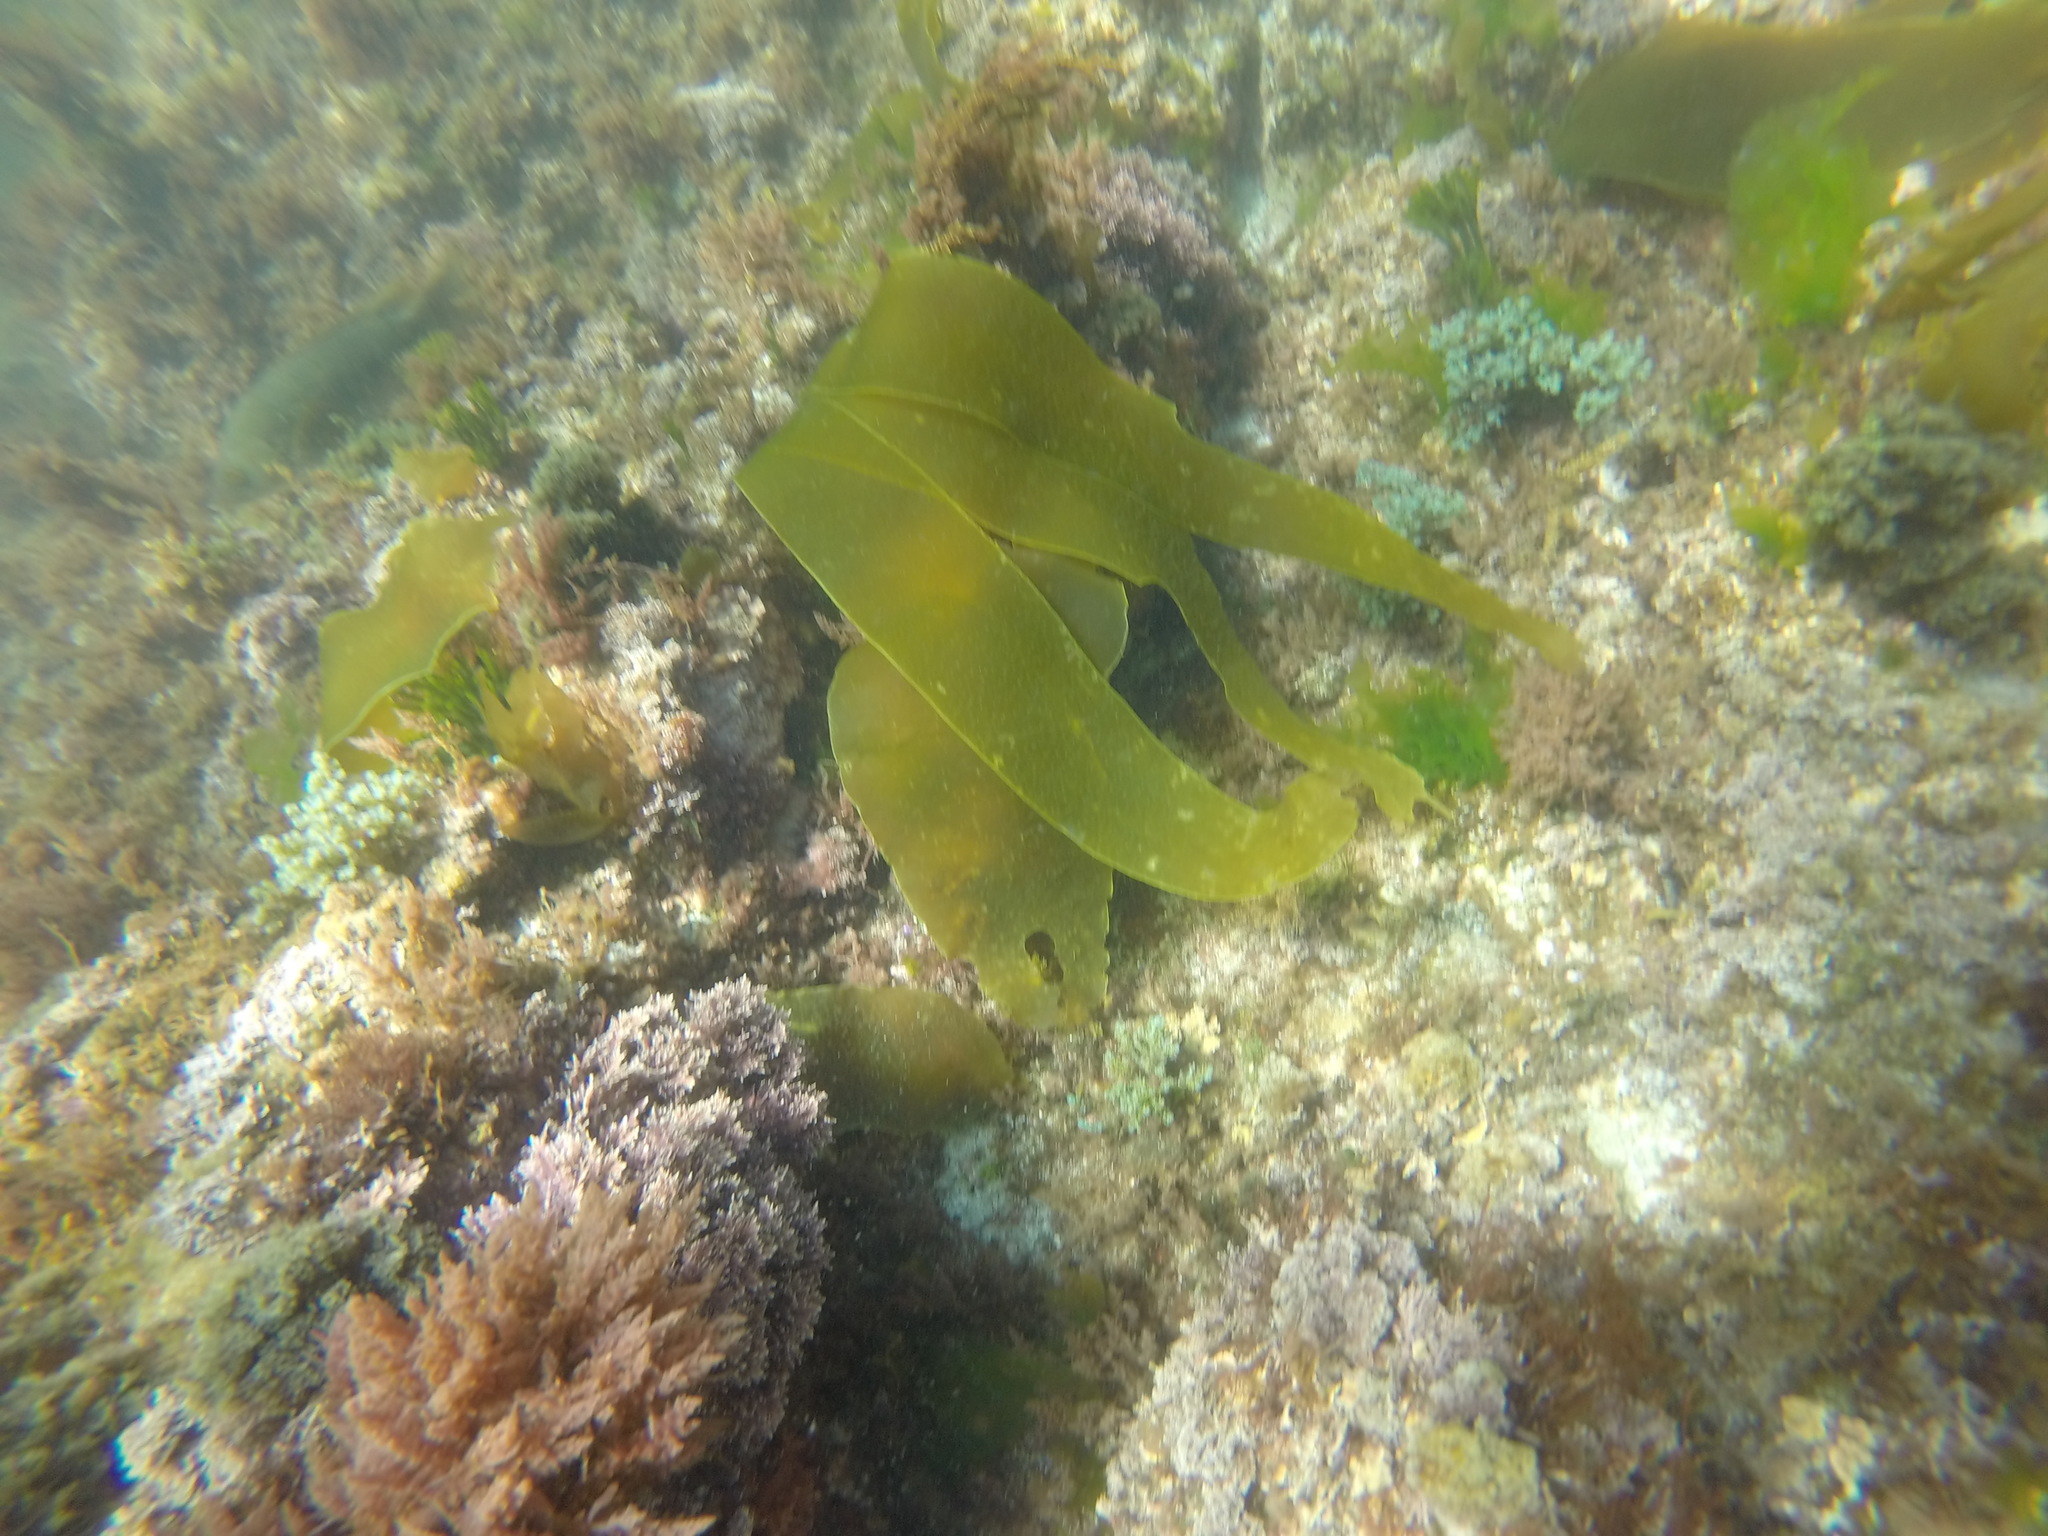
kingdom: Chromista
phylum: Ochrophyta
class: Phaeophyceae
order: Laminariales
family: Laminariaceae
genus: Laminaria
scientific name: Laminaria ochroleuca
